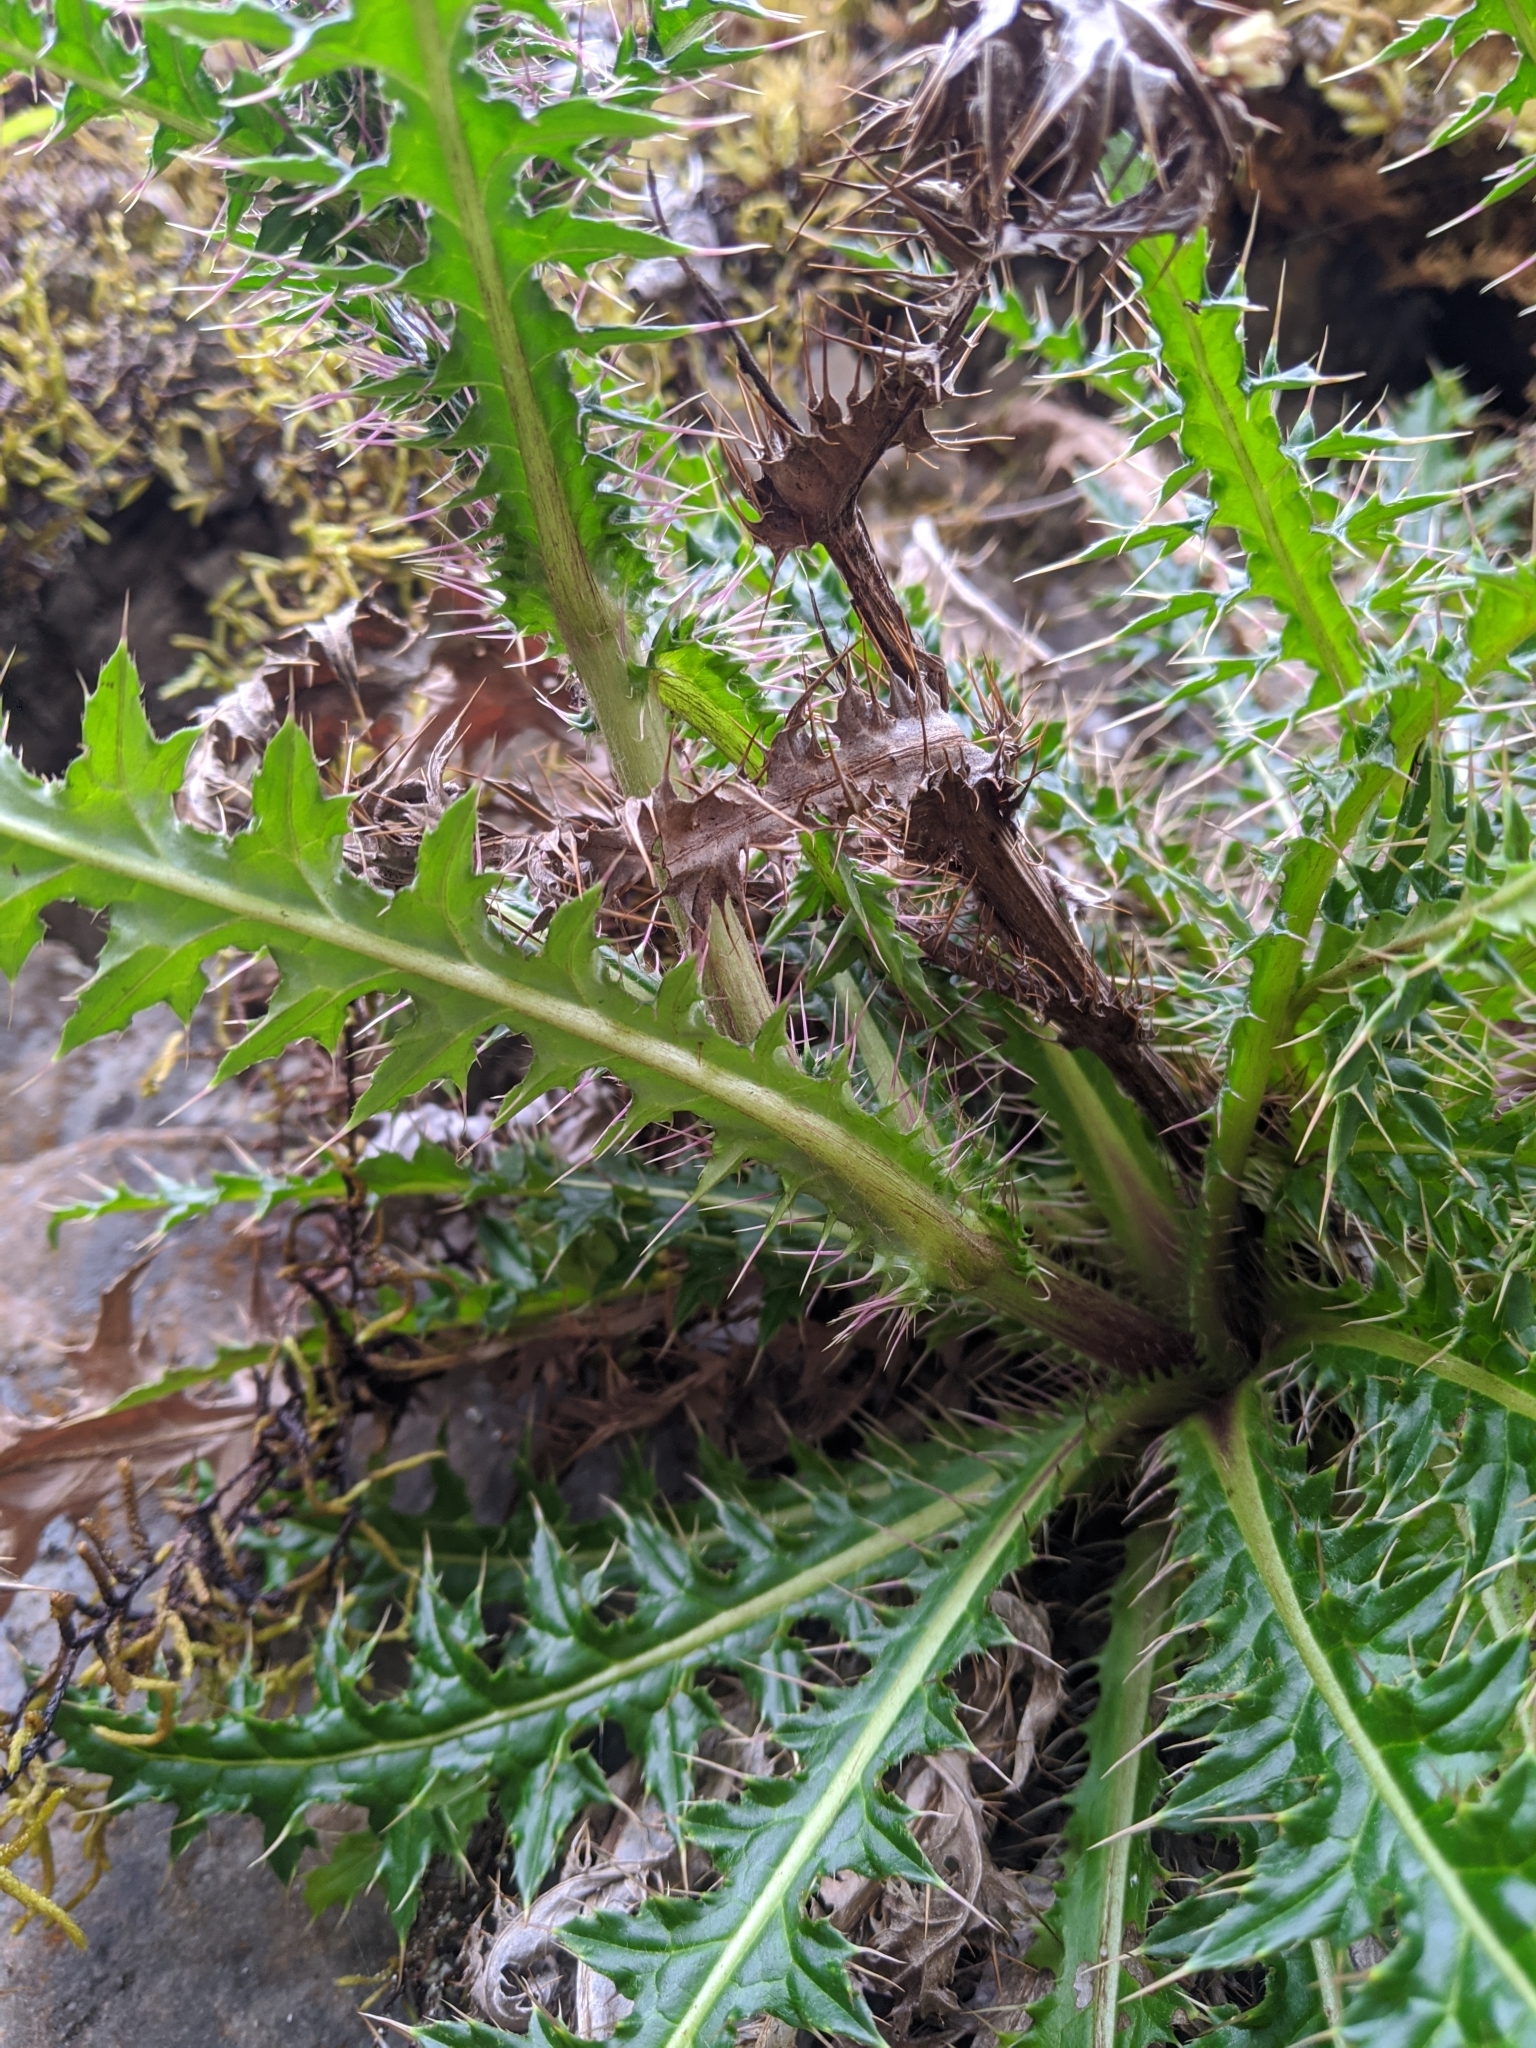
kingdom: Plantae
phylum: Tracheophyta
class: Magnoliopsida
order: Asterales
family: Asteraceae
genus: Cirsium
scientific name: Cirsium arisanense
